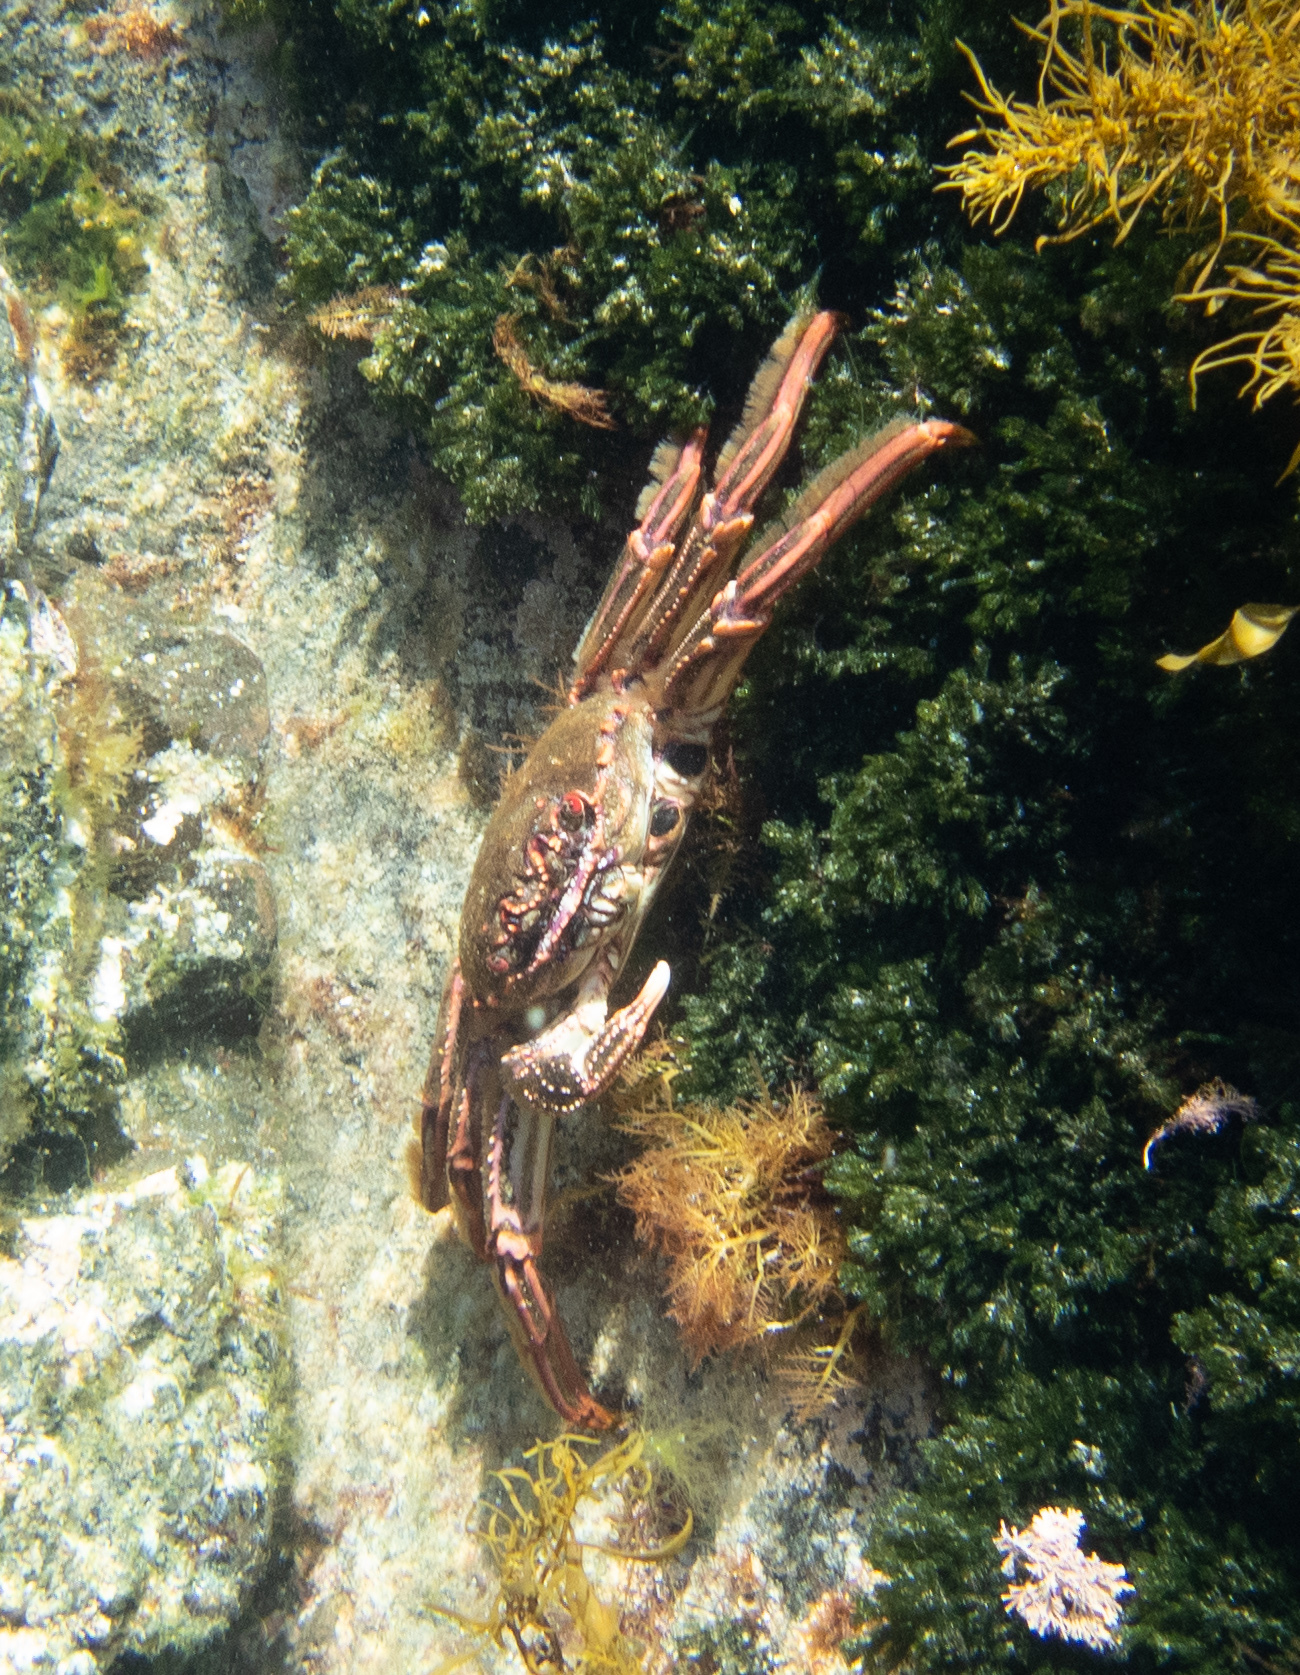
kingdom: Animalia
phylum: Arthropoda
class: Malacostraca
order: Decapoda
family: Plagusiidae
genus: Guinusia
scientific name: Guinusia chabrus
